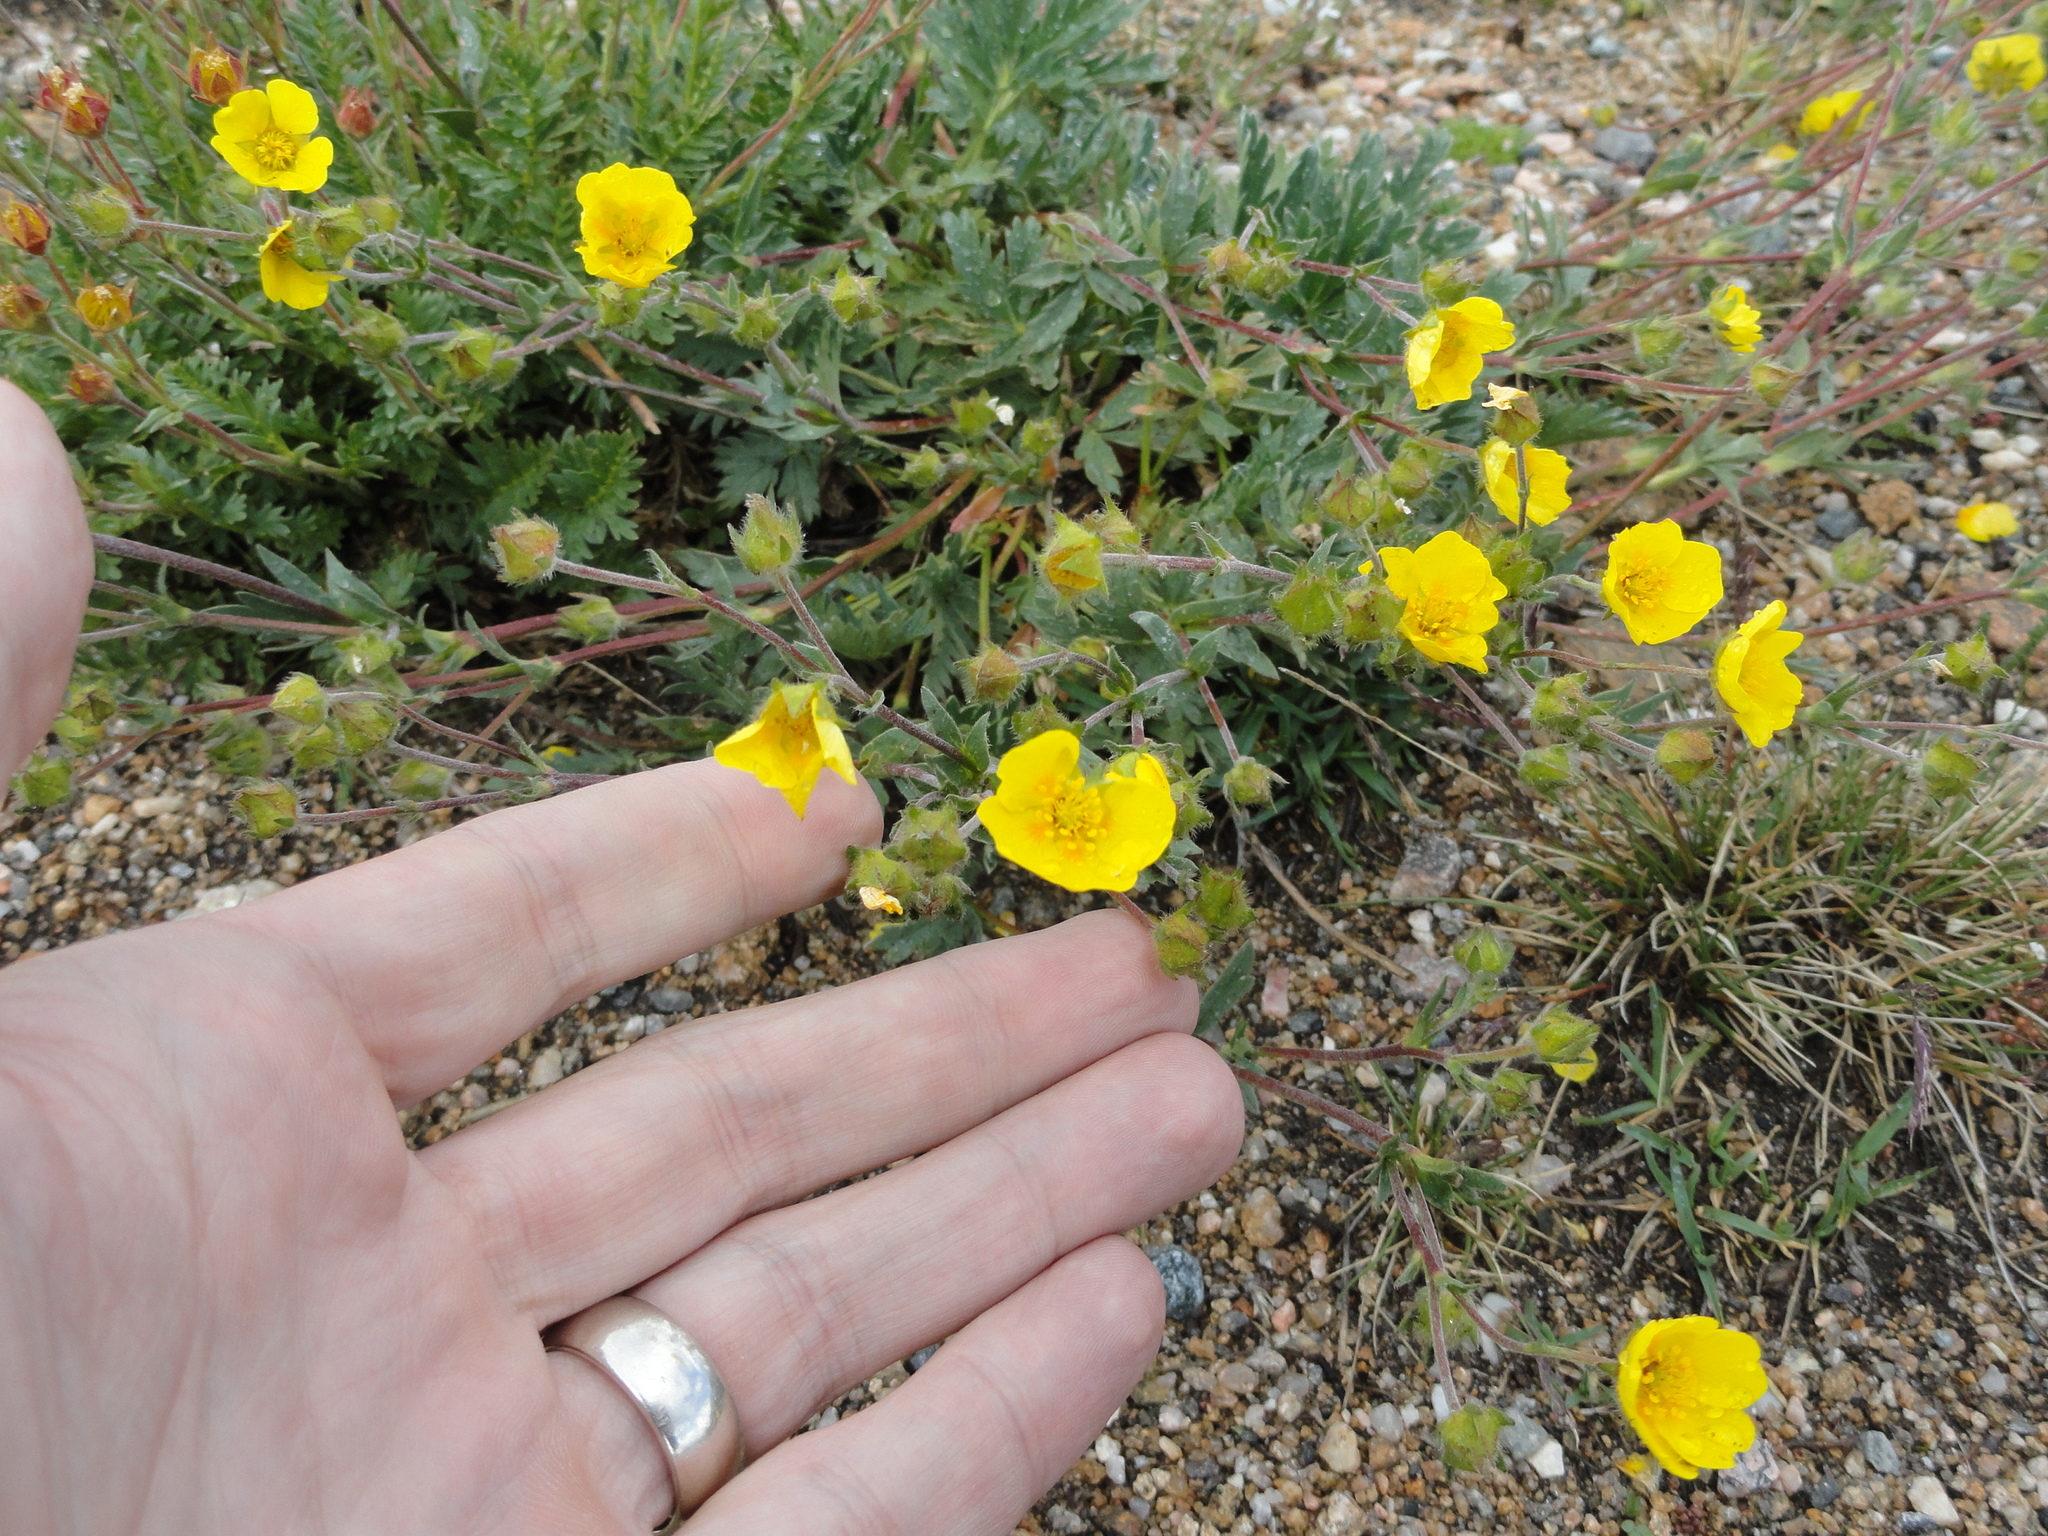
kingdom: Plantae
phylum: Tracheophyta
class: Magnoliopsida
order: Rosales
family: Rosaceae
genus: Dasiphora
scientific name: Dasiphora fruticosa
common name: Shrubby cinquefoil
